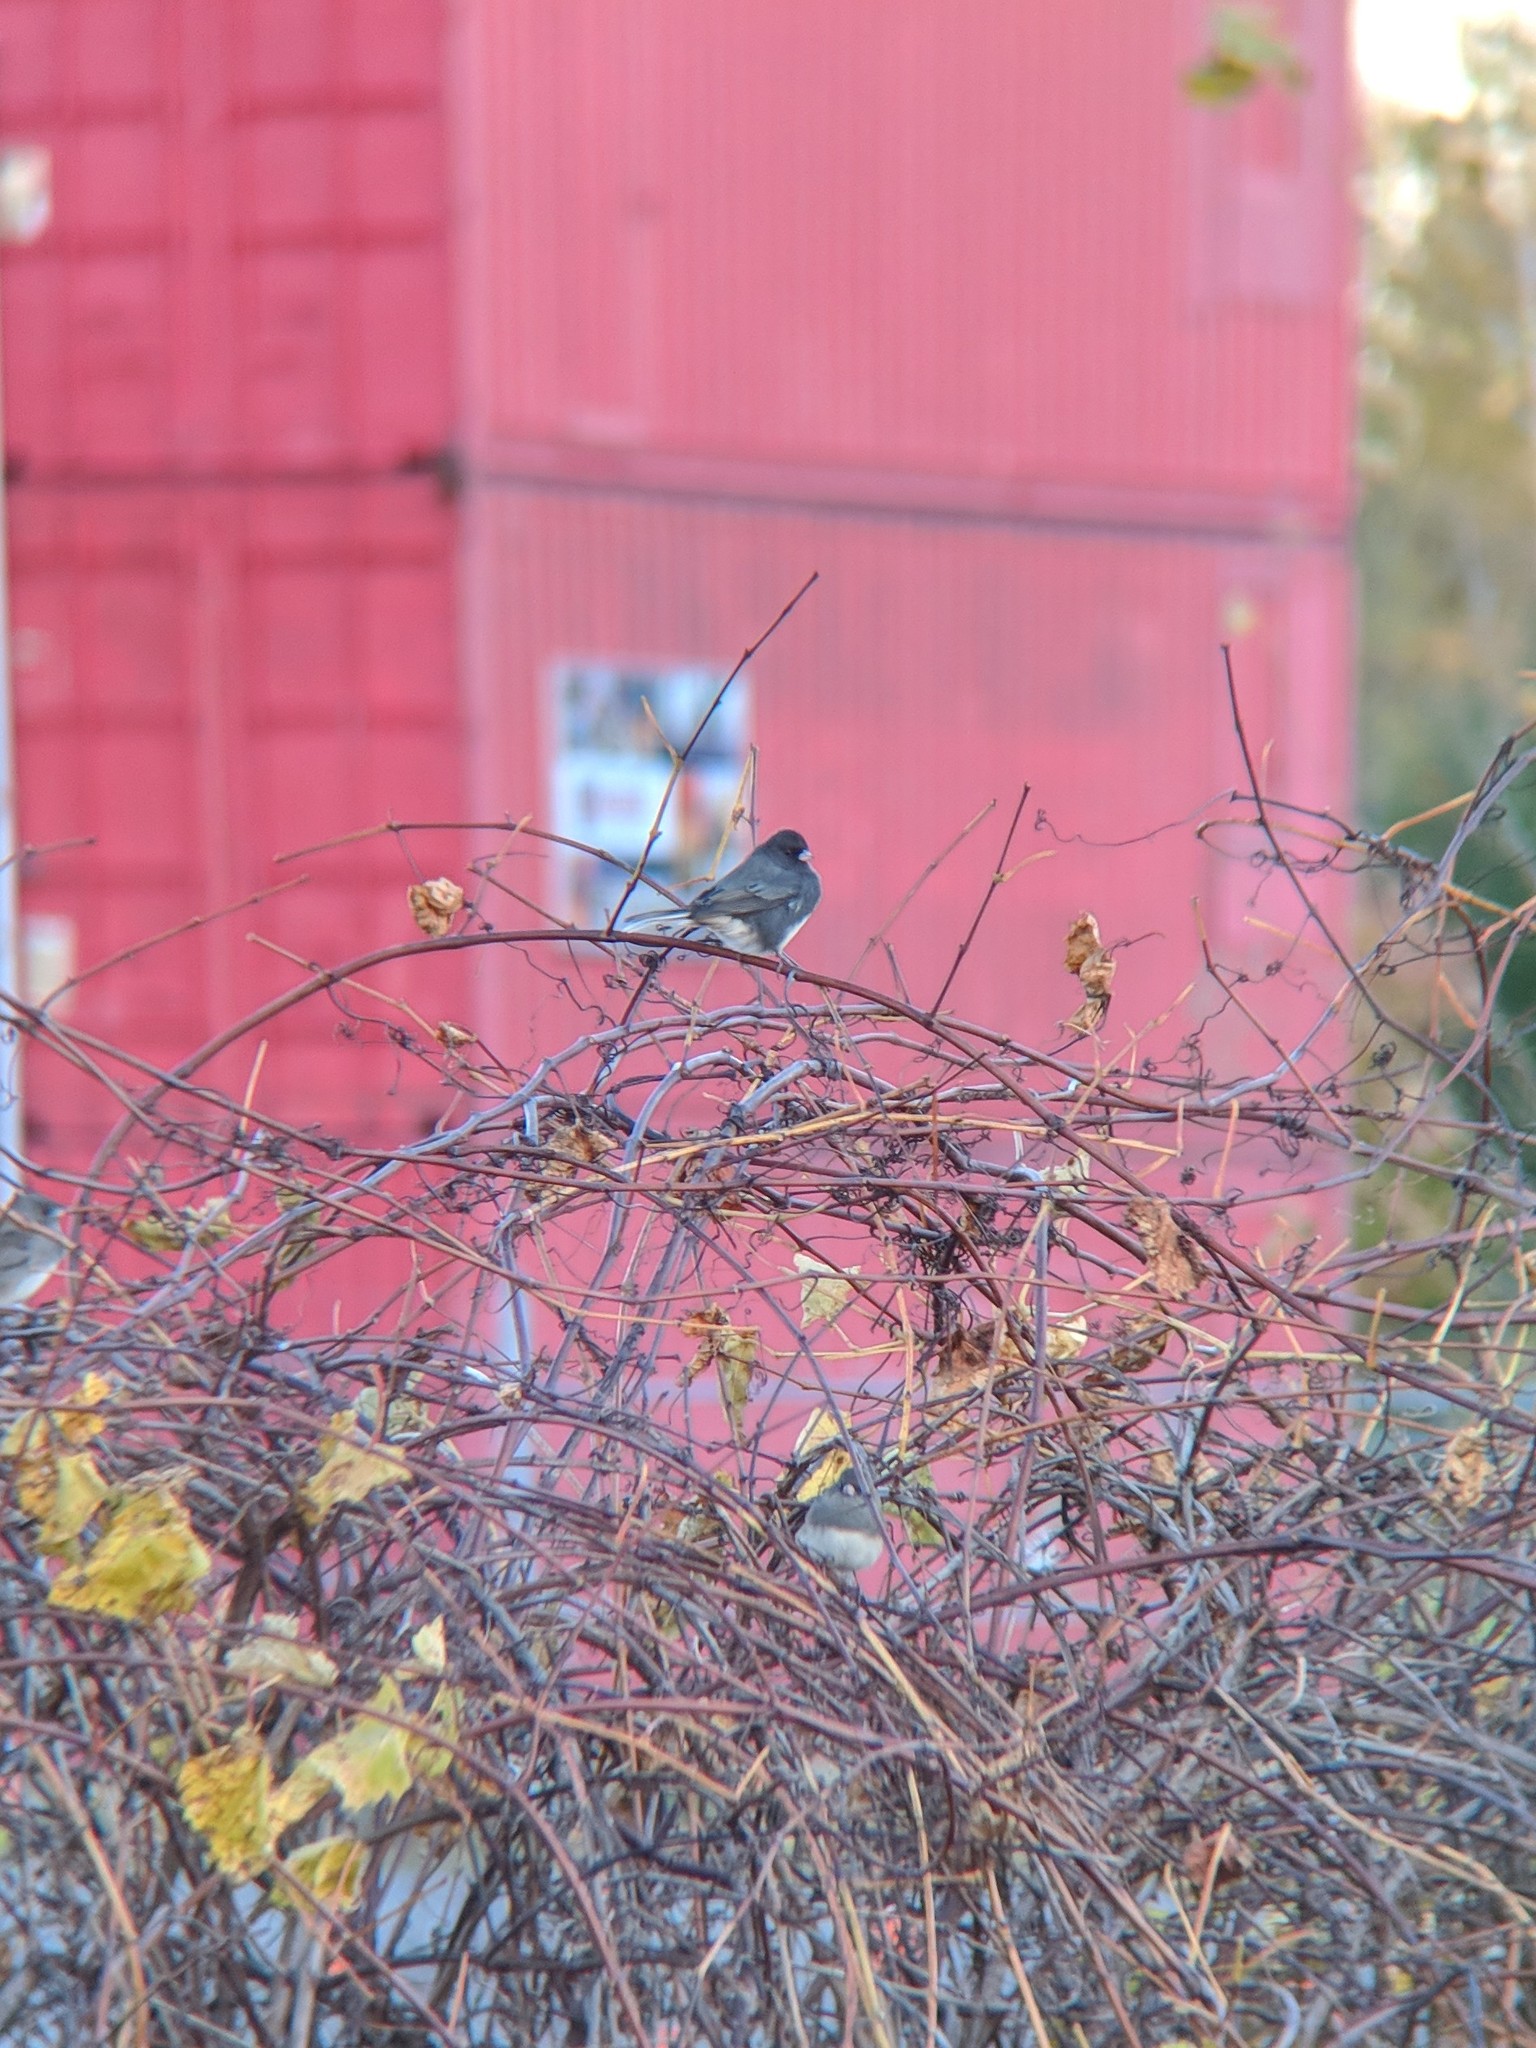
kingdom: Animalia
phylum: Chordata
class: Aves
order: Passeriformes
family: Passerellidae
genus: Junco
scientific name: Junco hyemalis
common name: Dark-eyed junco
